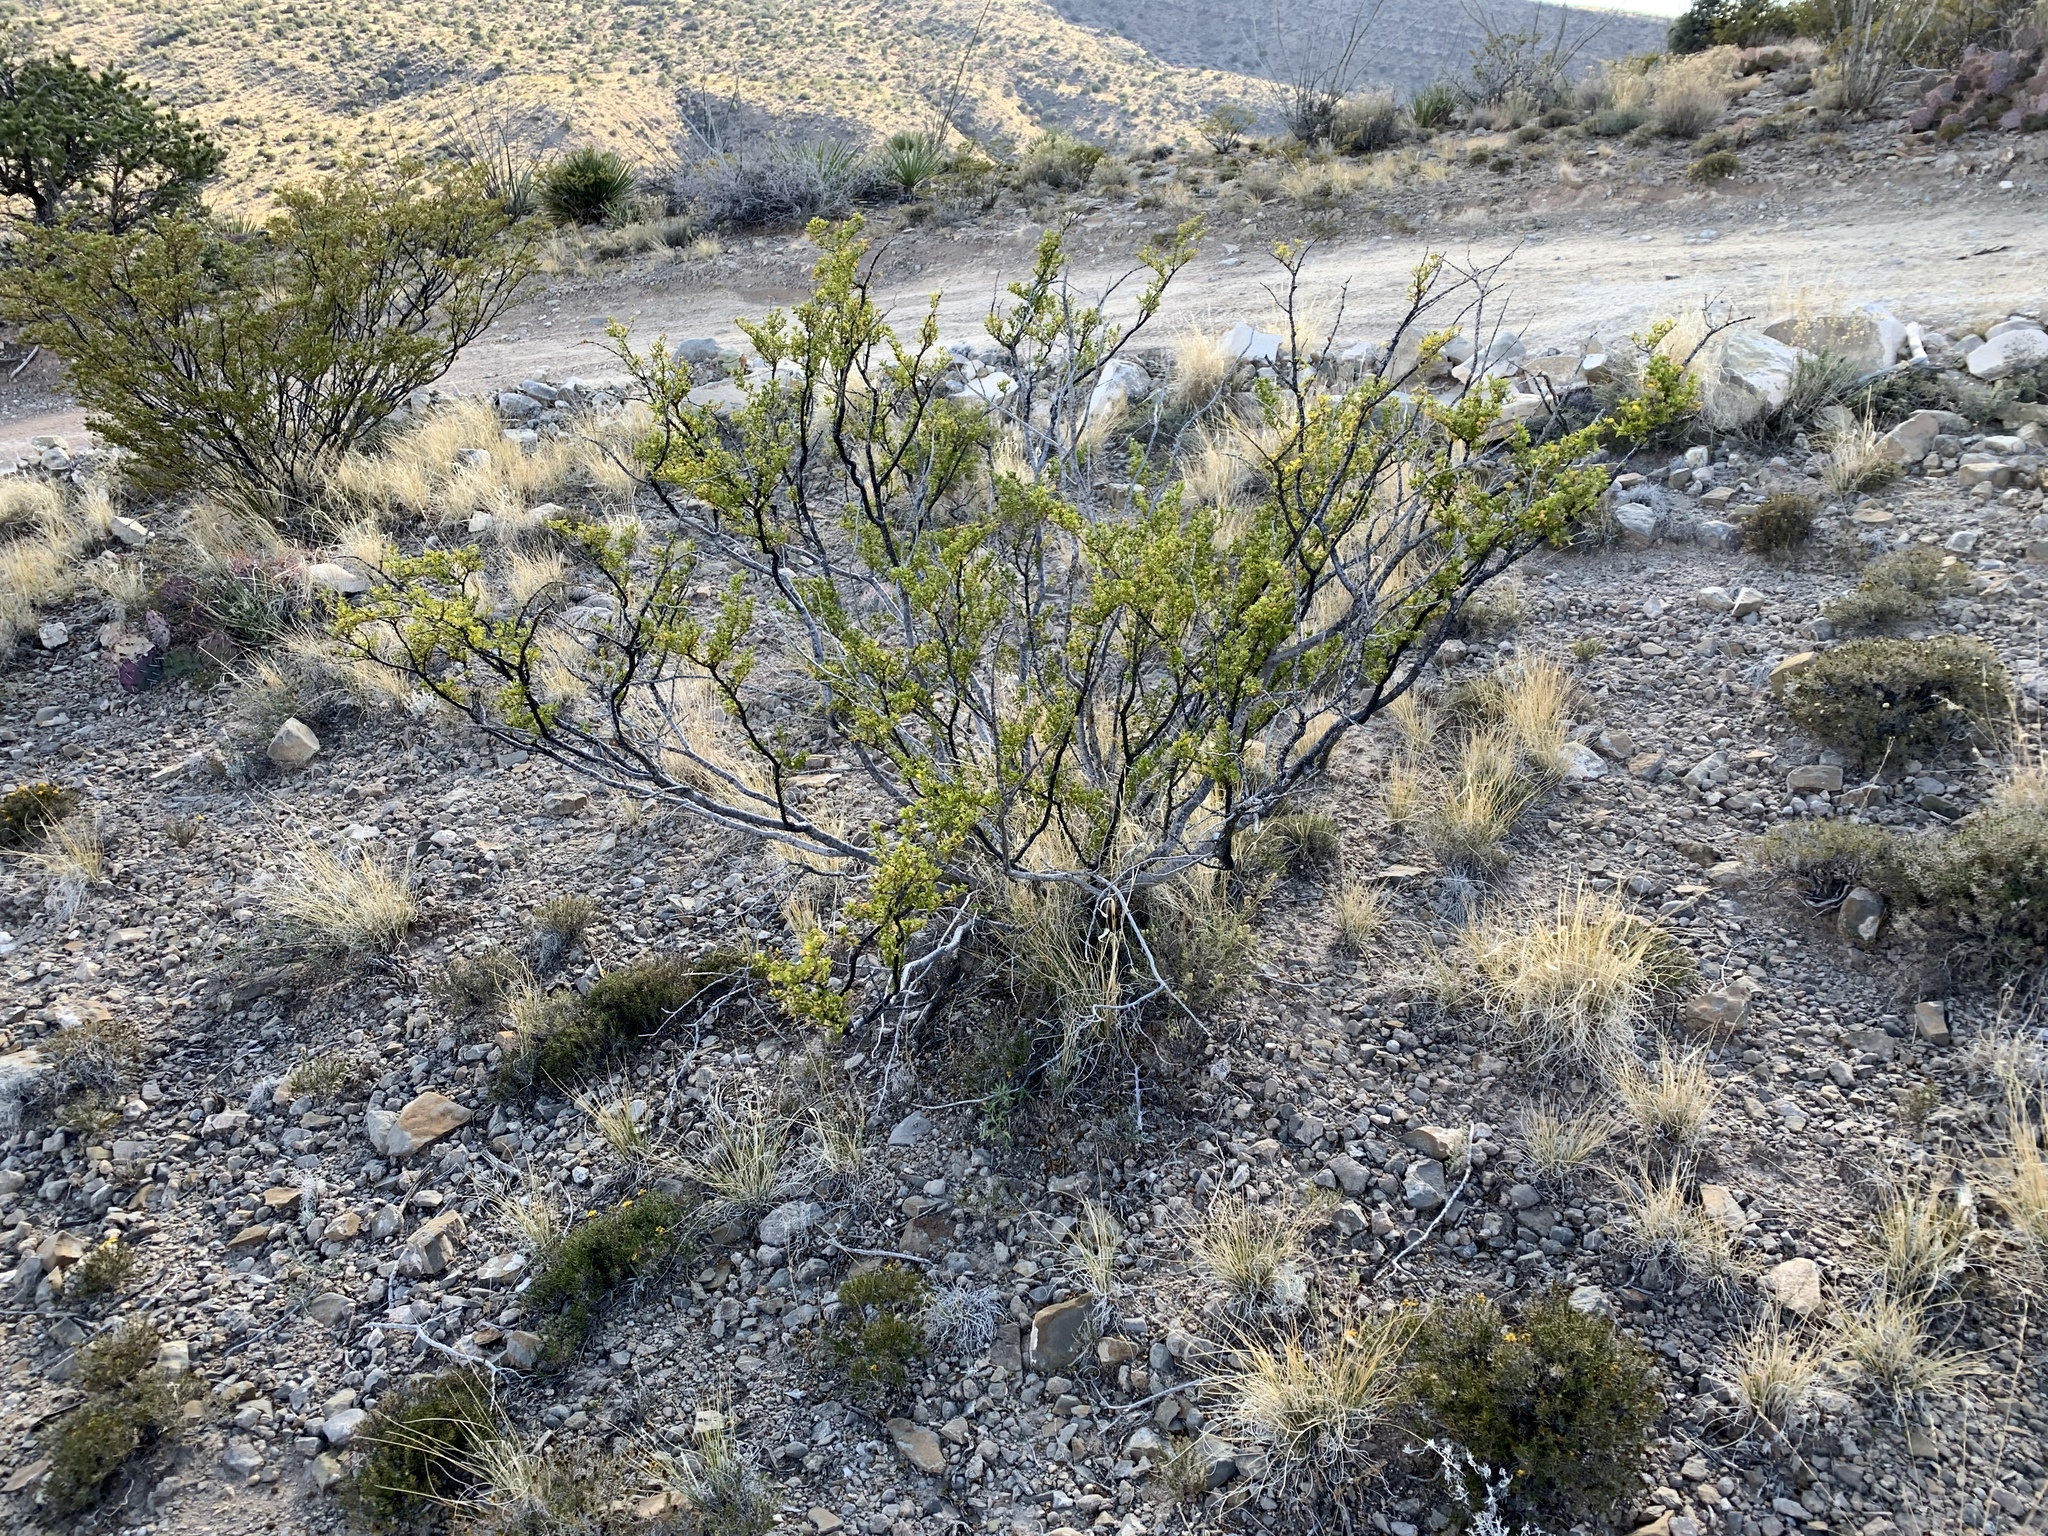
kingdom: Plantae
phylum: Tracheophyta
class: Magnoliopsida
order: Zygophyllales
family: Zygophyllaceae
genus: Larrea
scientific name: Larrea tridentata
